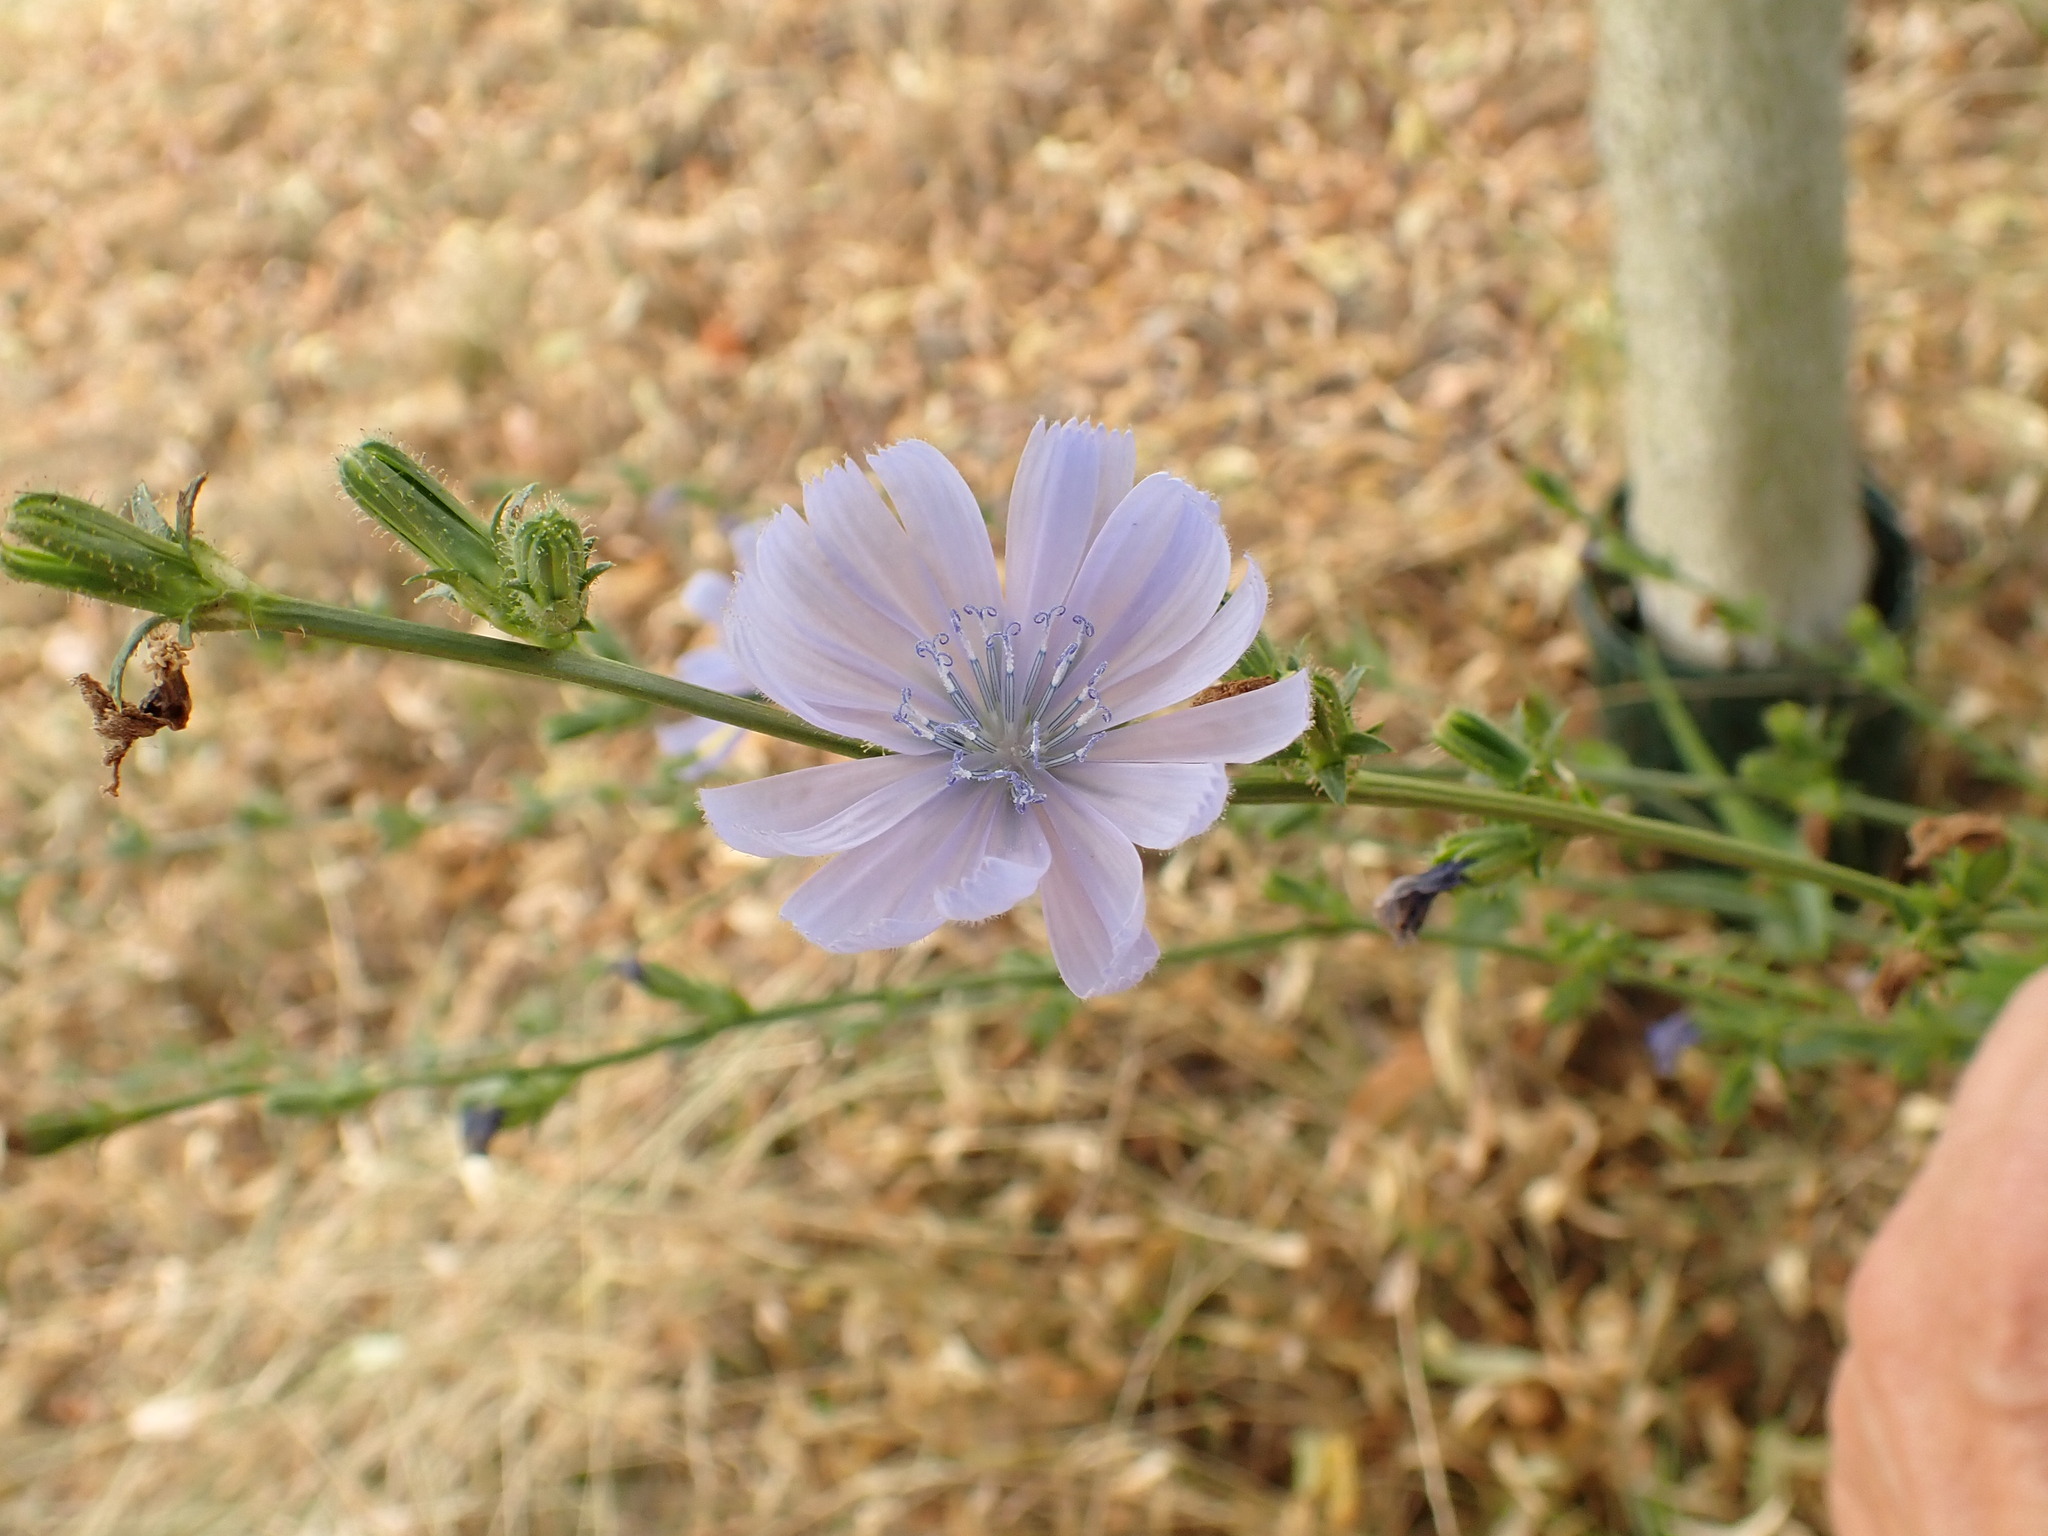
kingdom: Plantae
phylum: Tracheophyta
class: Magnoliopsida
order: Asterales
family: Asteraceae
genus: Cichorium
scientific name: Cichorium intybus
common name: Chicory
